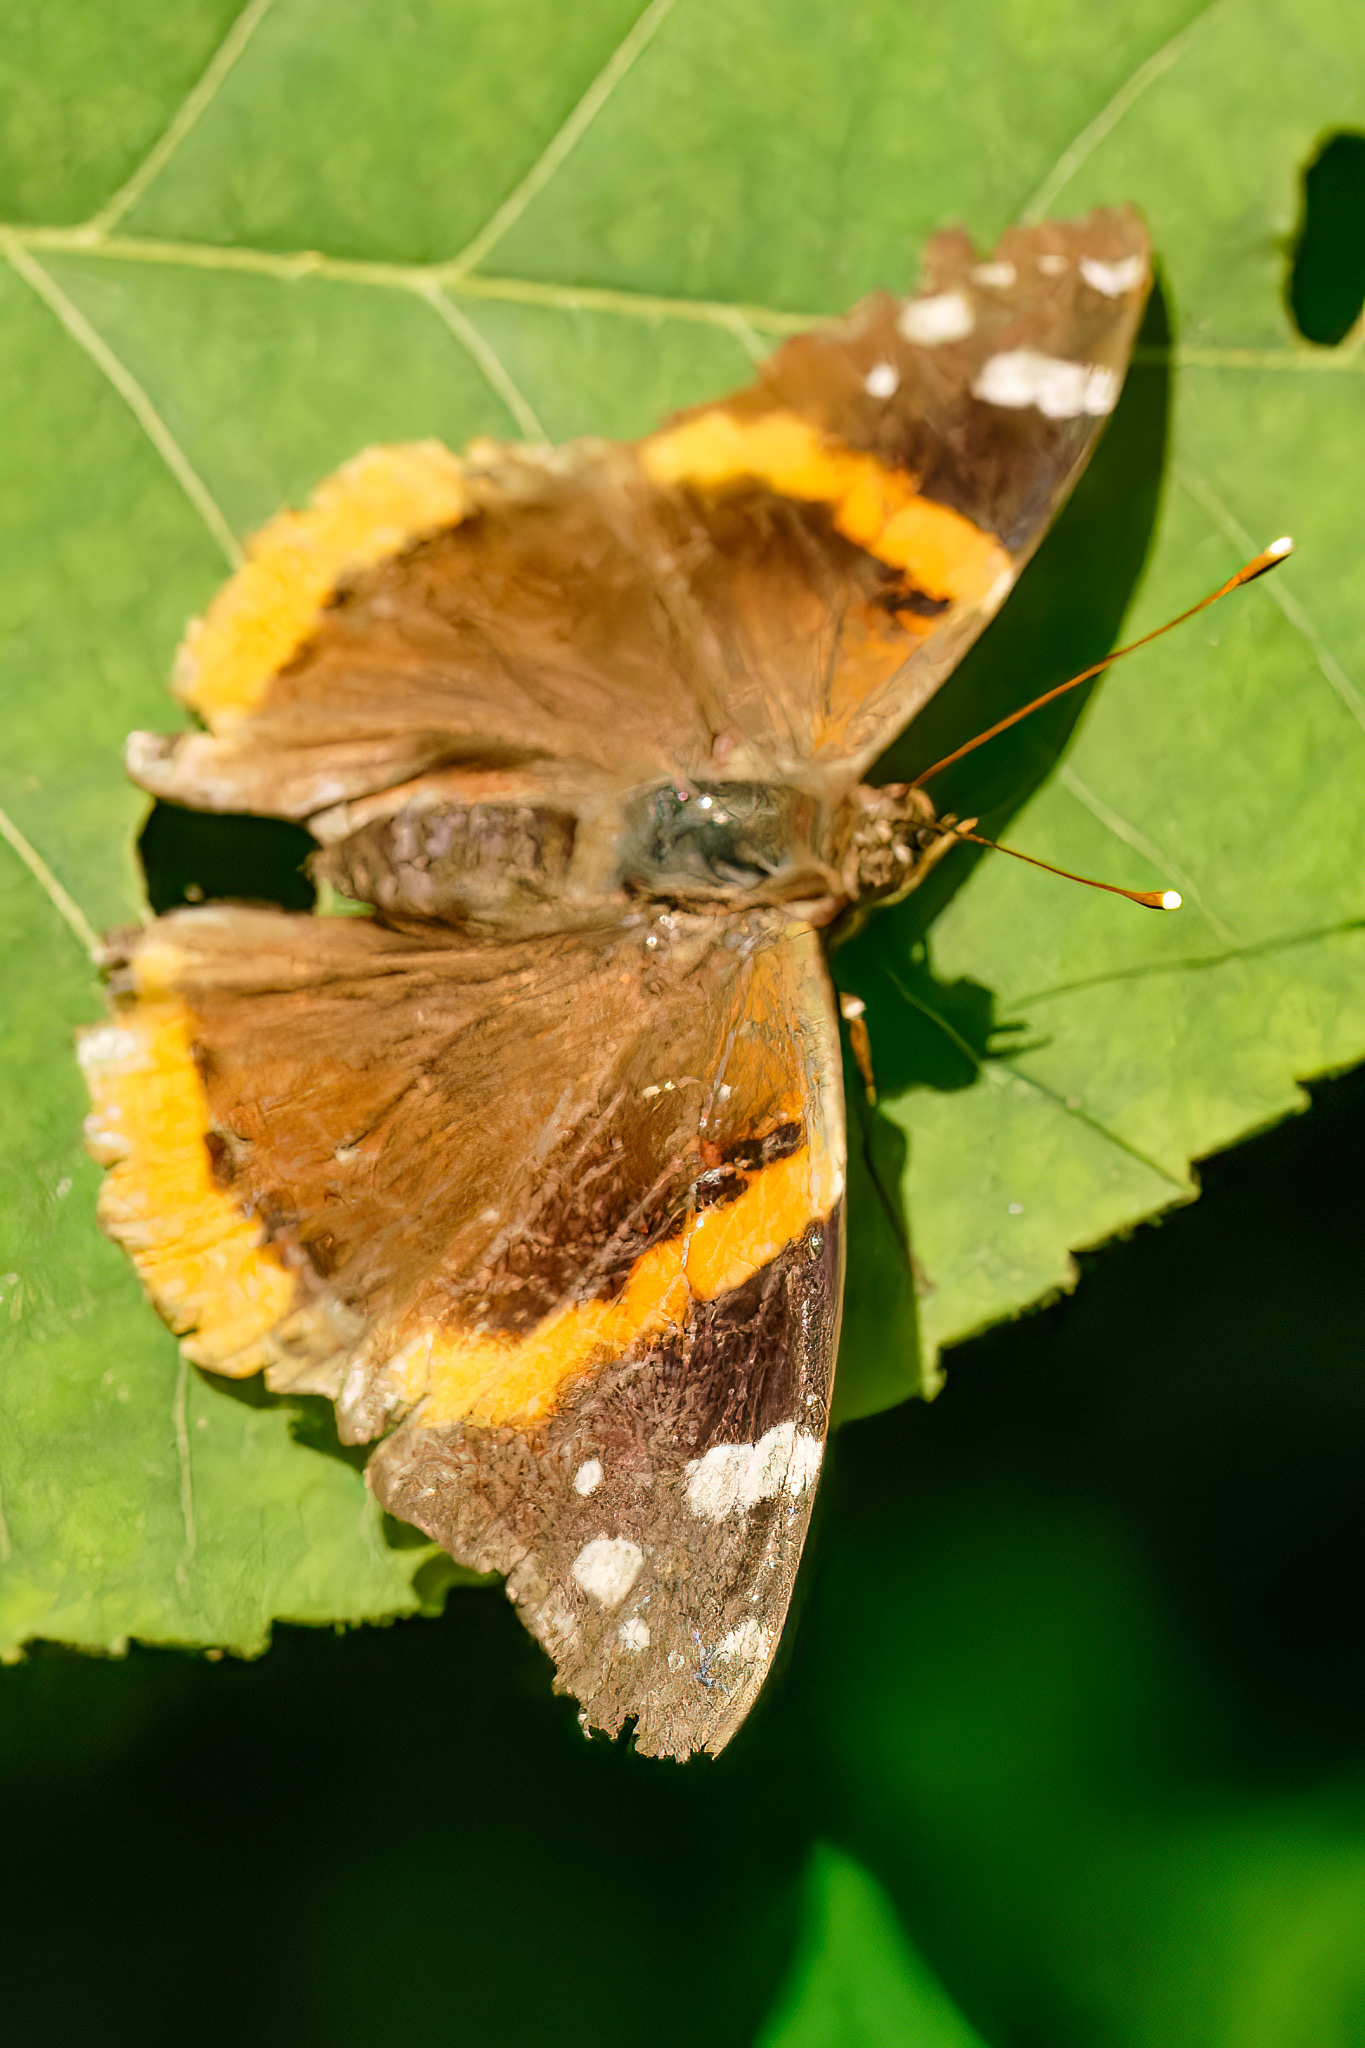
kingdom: Animalia
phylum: Arthropoda
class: Insecta
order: Lepidoptera
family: Nymphalidae
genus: Vanessa
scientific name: Vanessa atalanta
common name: Red admiral
